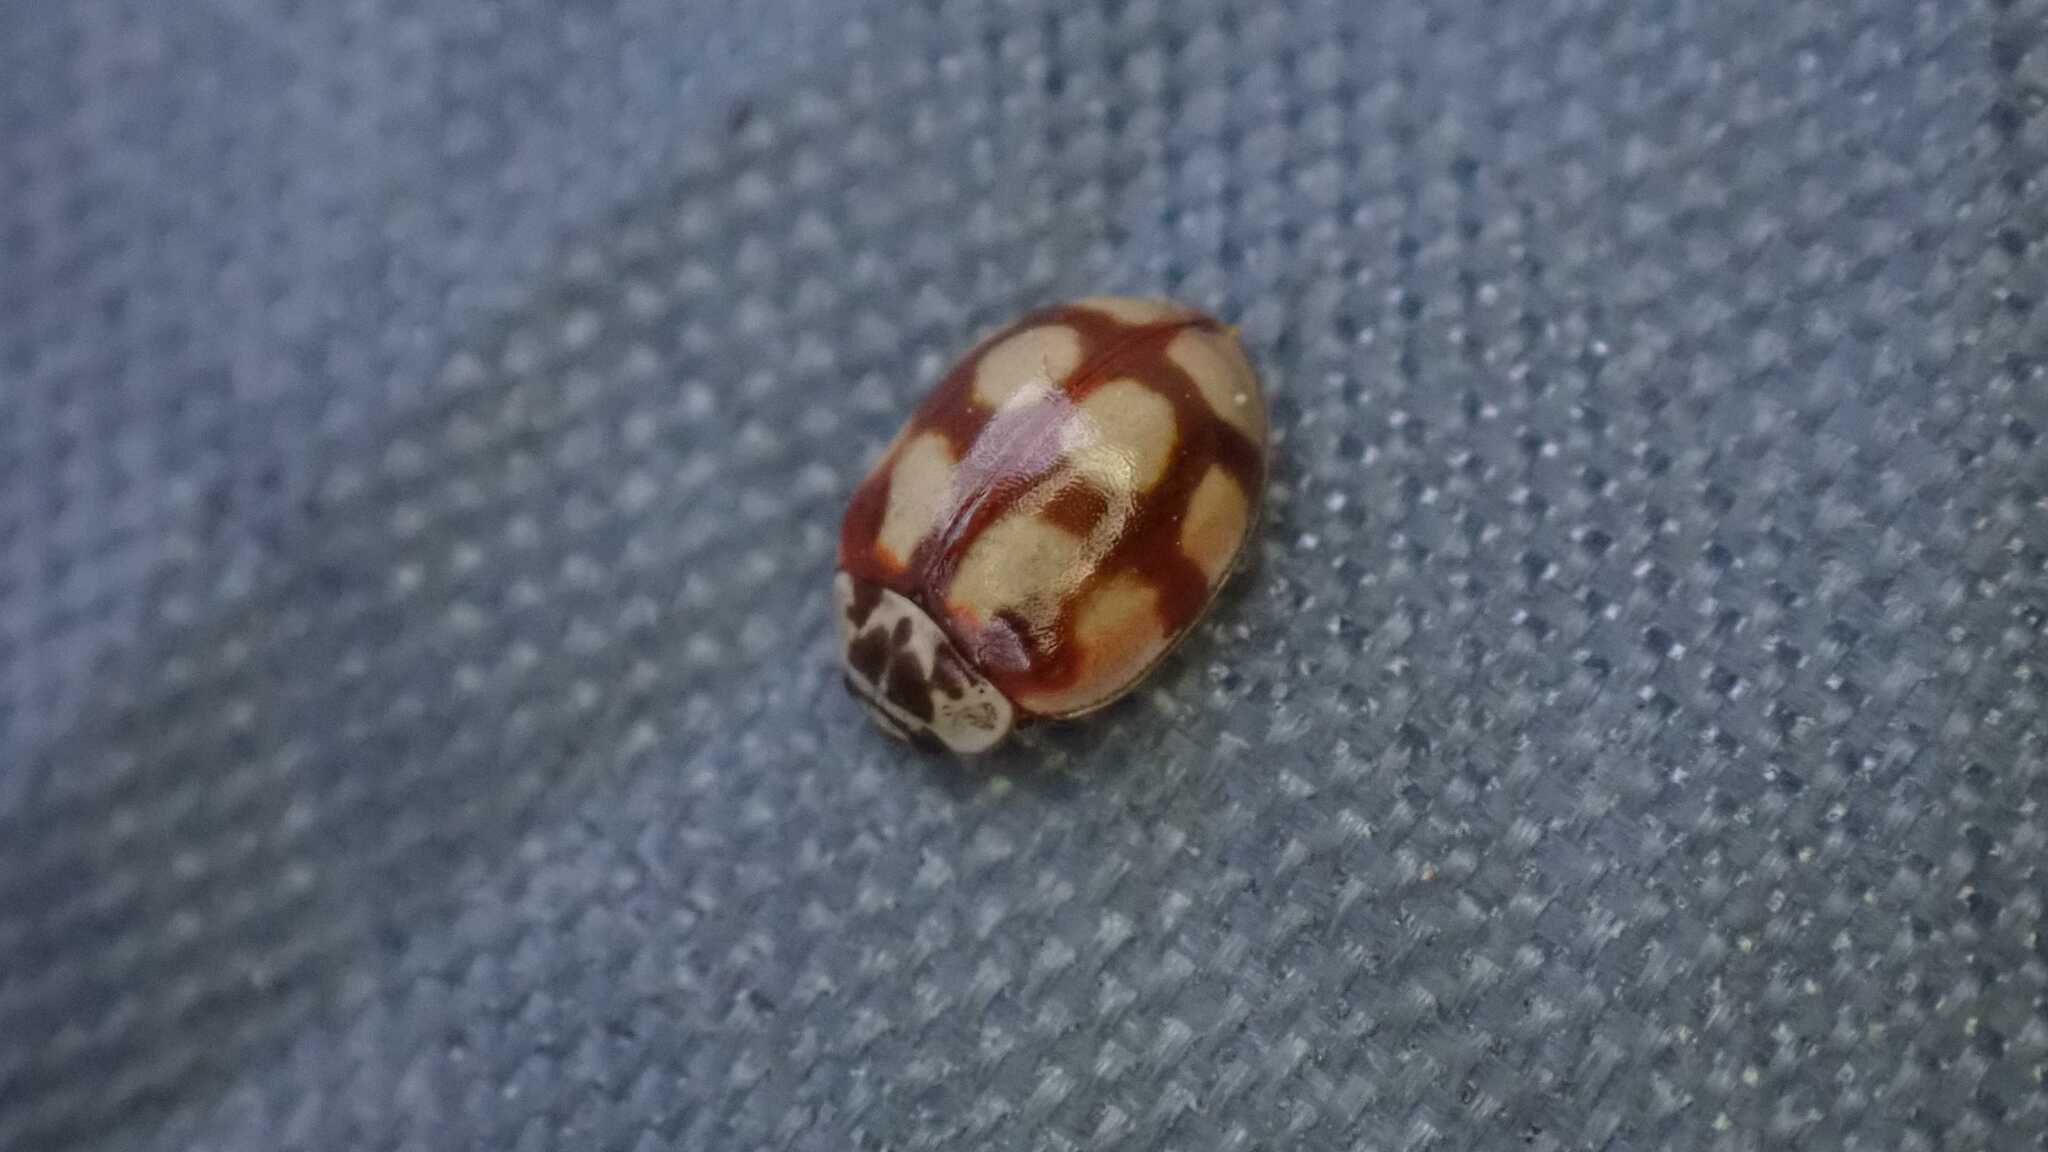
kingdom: Animalia
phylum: Arthropoda
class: Insecta
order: Coleoptera
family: Coccinellidae
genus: Adalia
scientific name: Adalia decempunctata
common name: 10-spot ladybird
